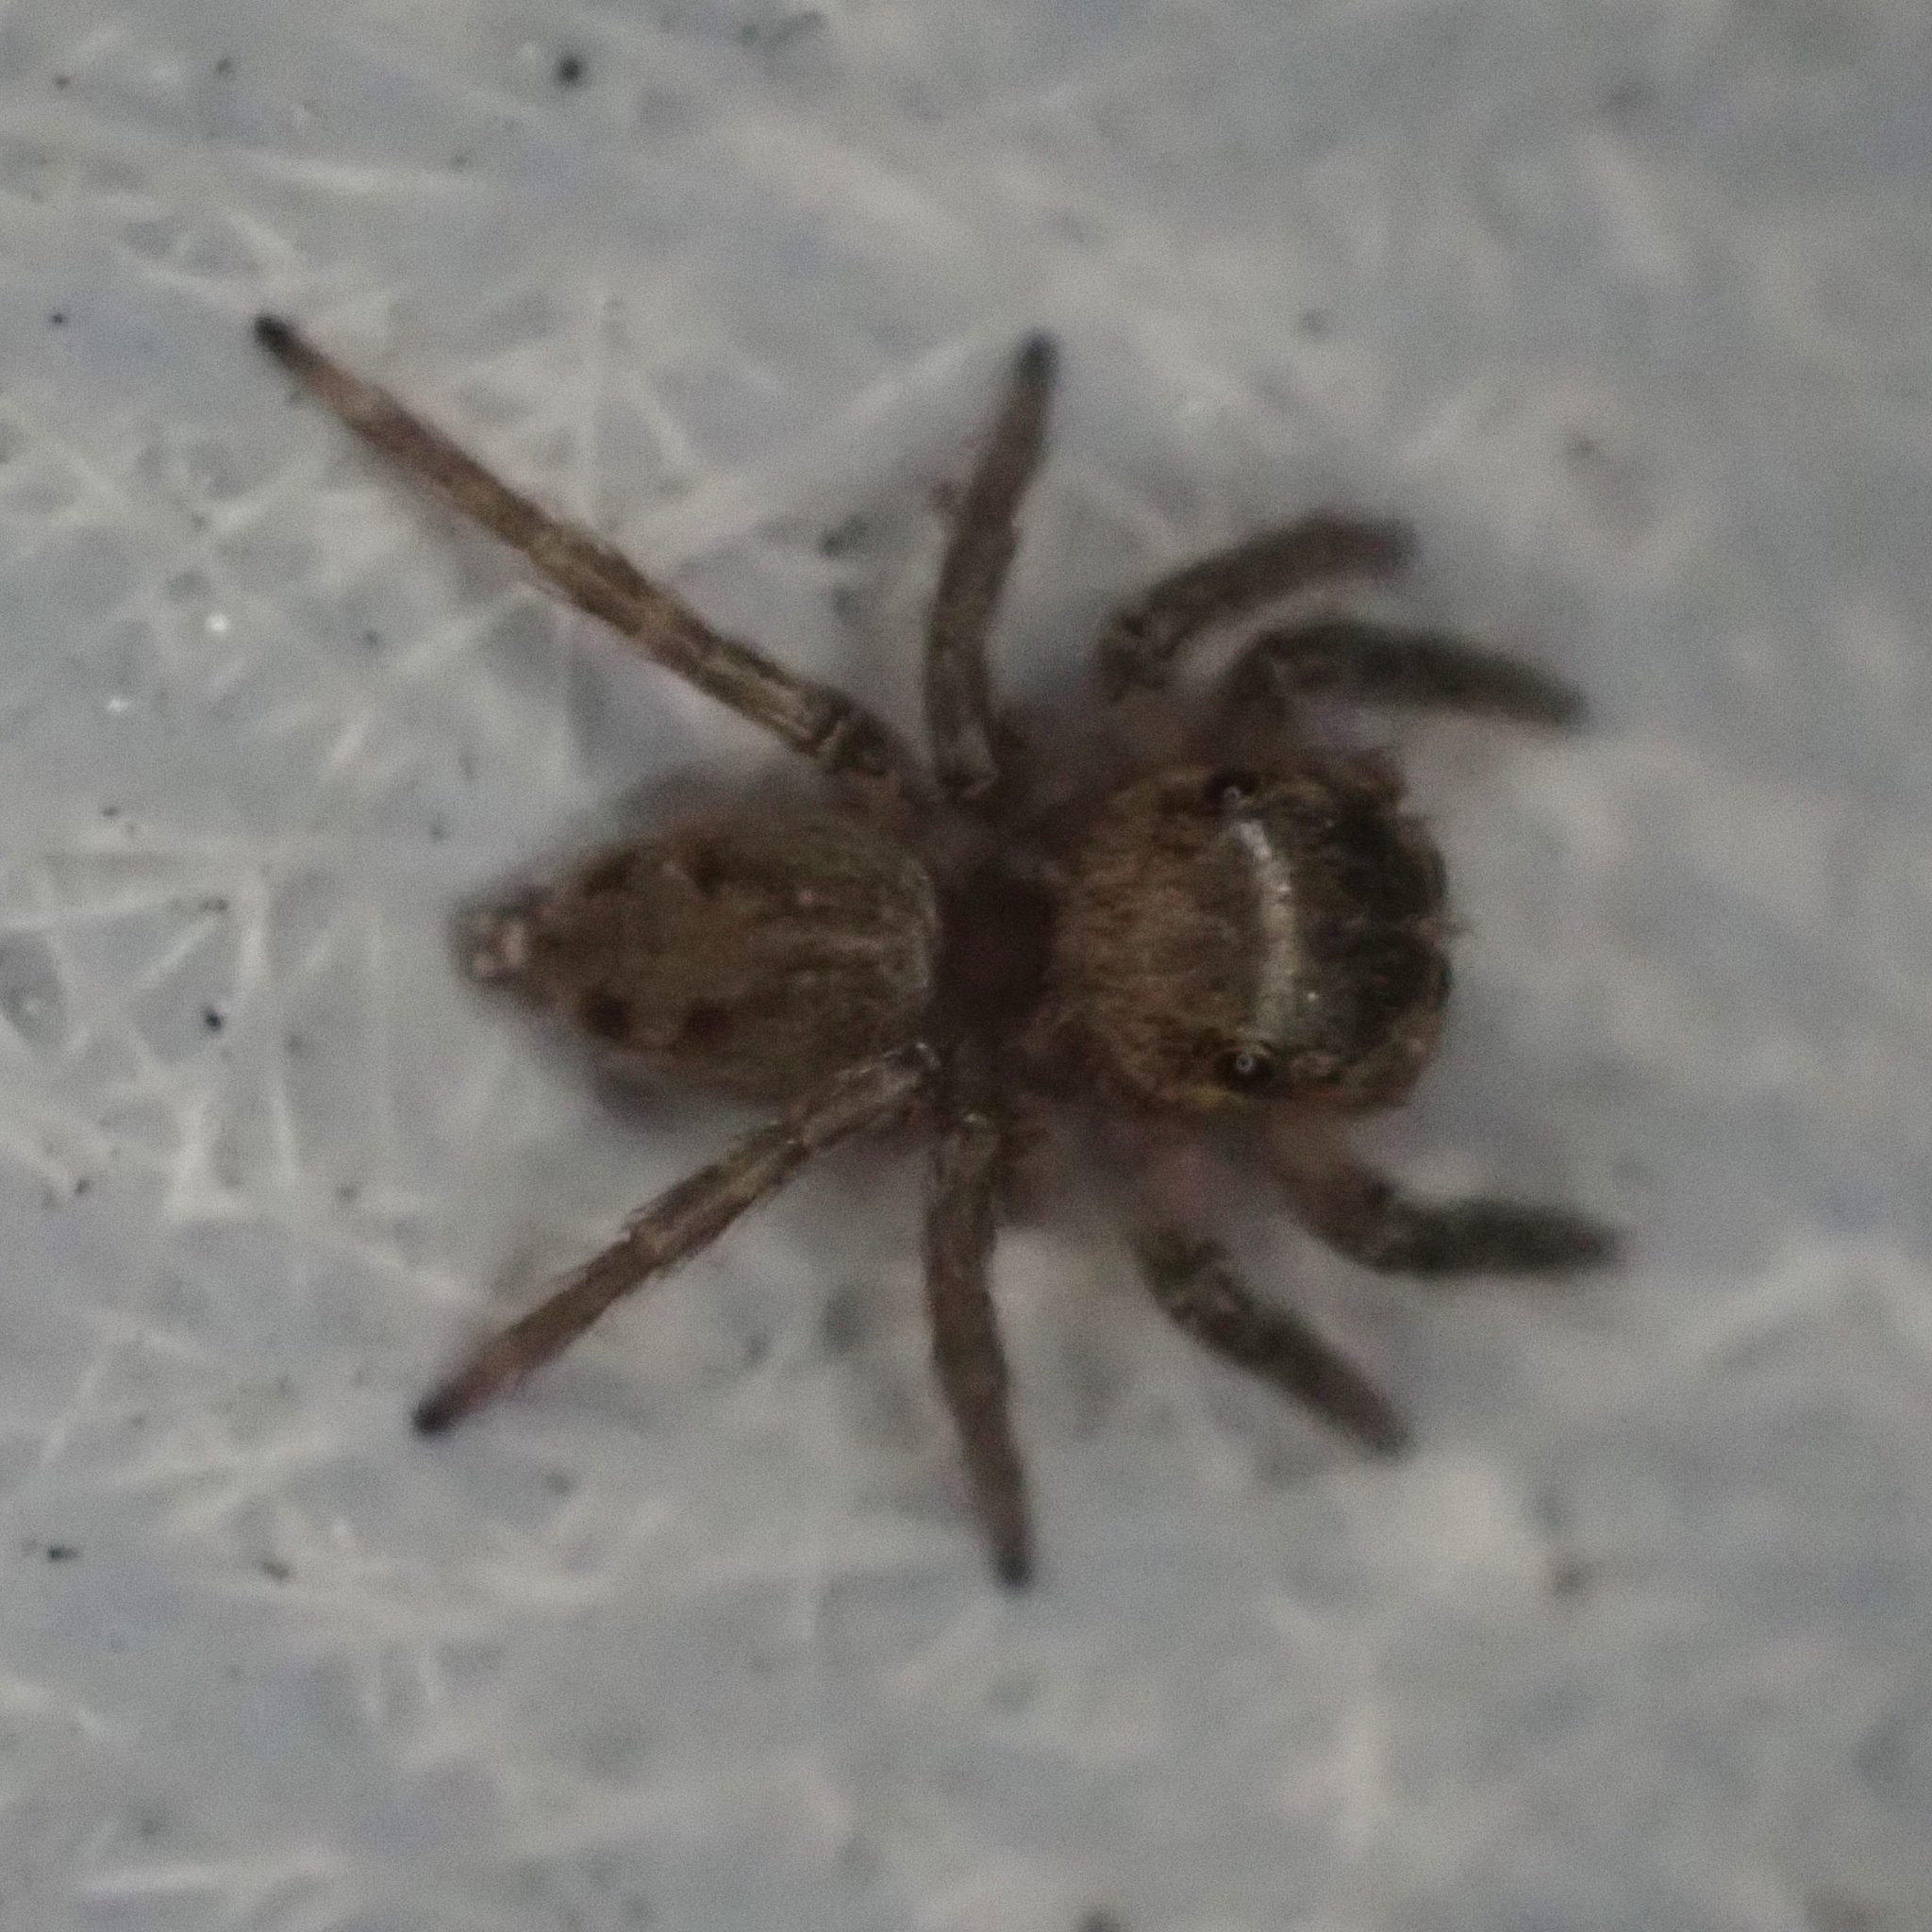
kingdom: Animalia
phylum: Arthropoda
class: Arachnida
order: Araneae
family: Salticidae
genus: Hasarius
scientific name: Hasarius adansoni
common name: Jumping spider
